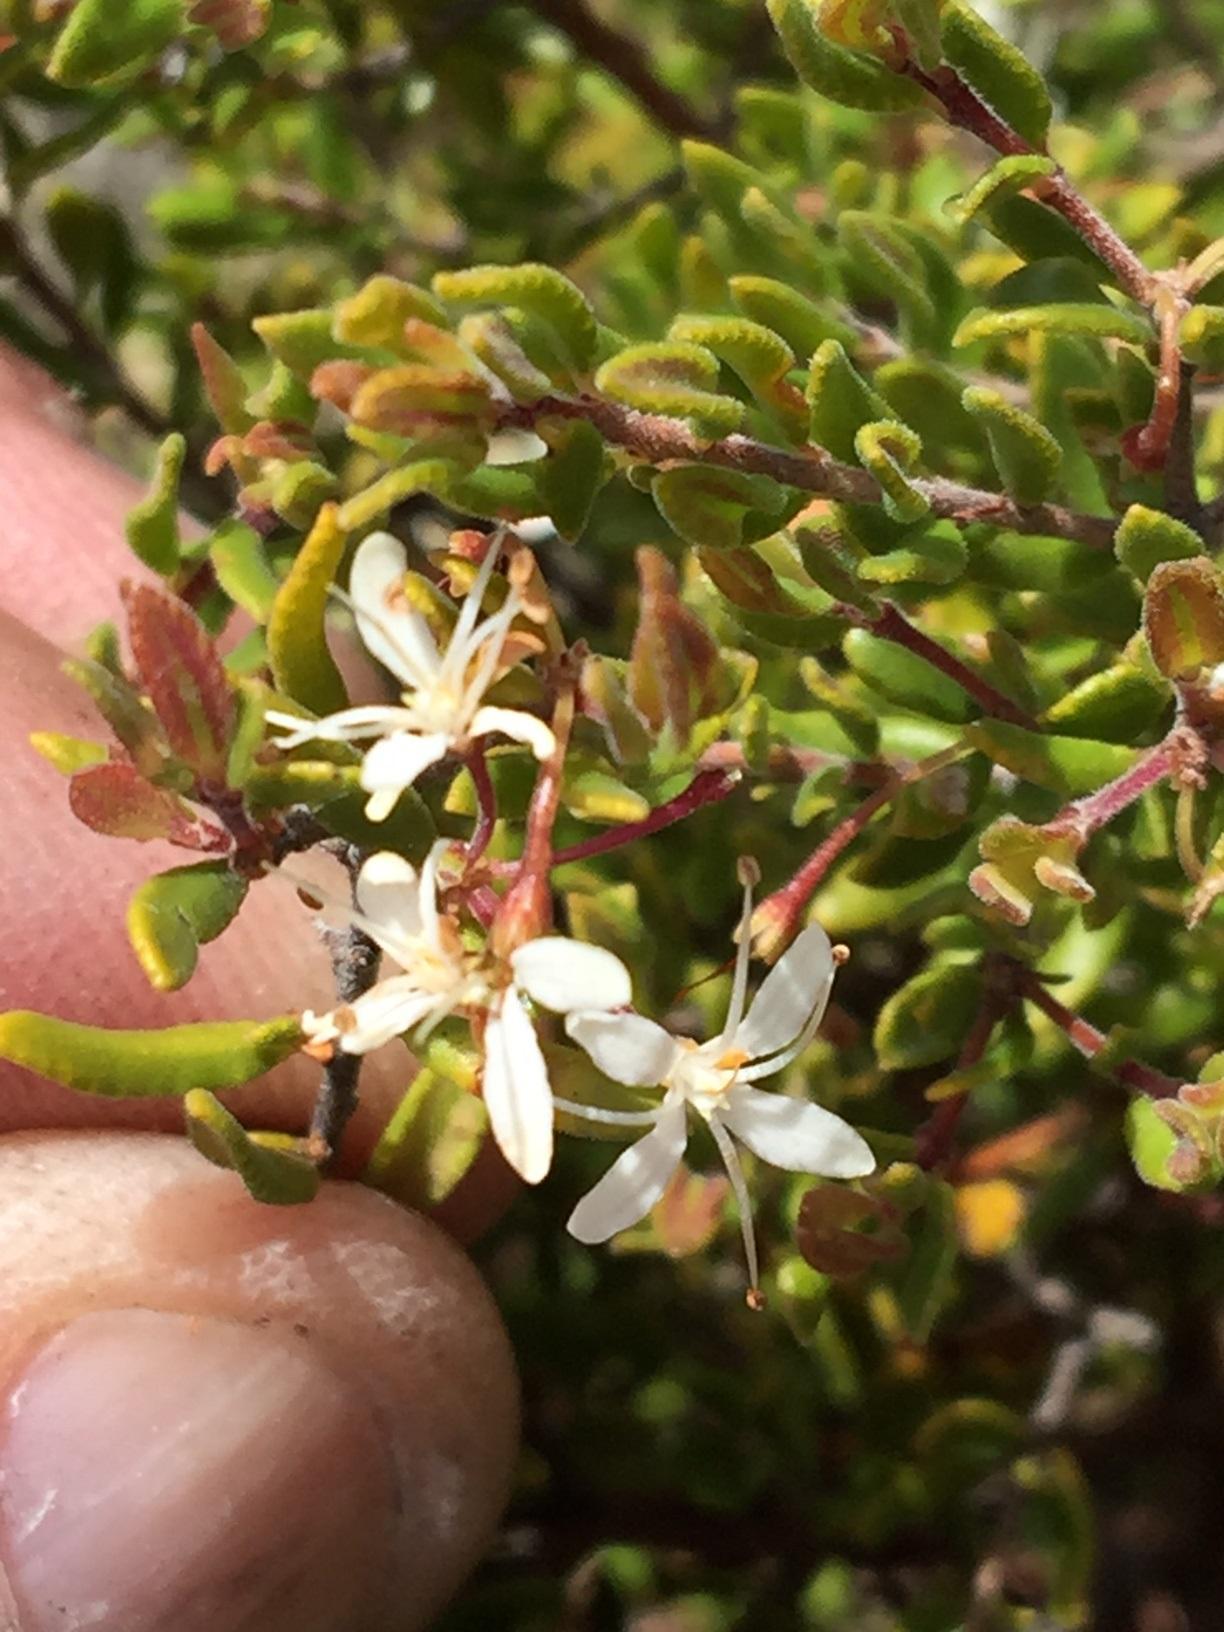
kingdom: Plantae
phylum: Tracheophyta
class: Magnoliopsida
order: Sapindales
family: Rutaceae
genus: Agathosma
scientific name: Agathosma mundtii
